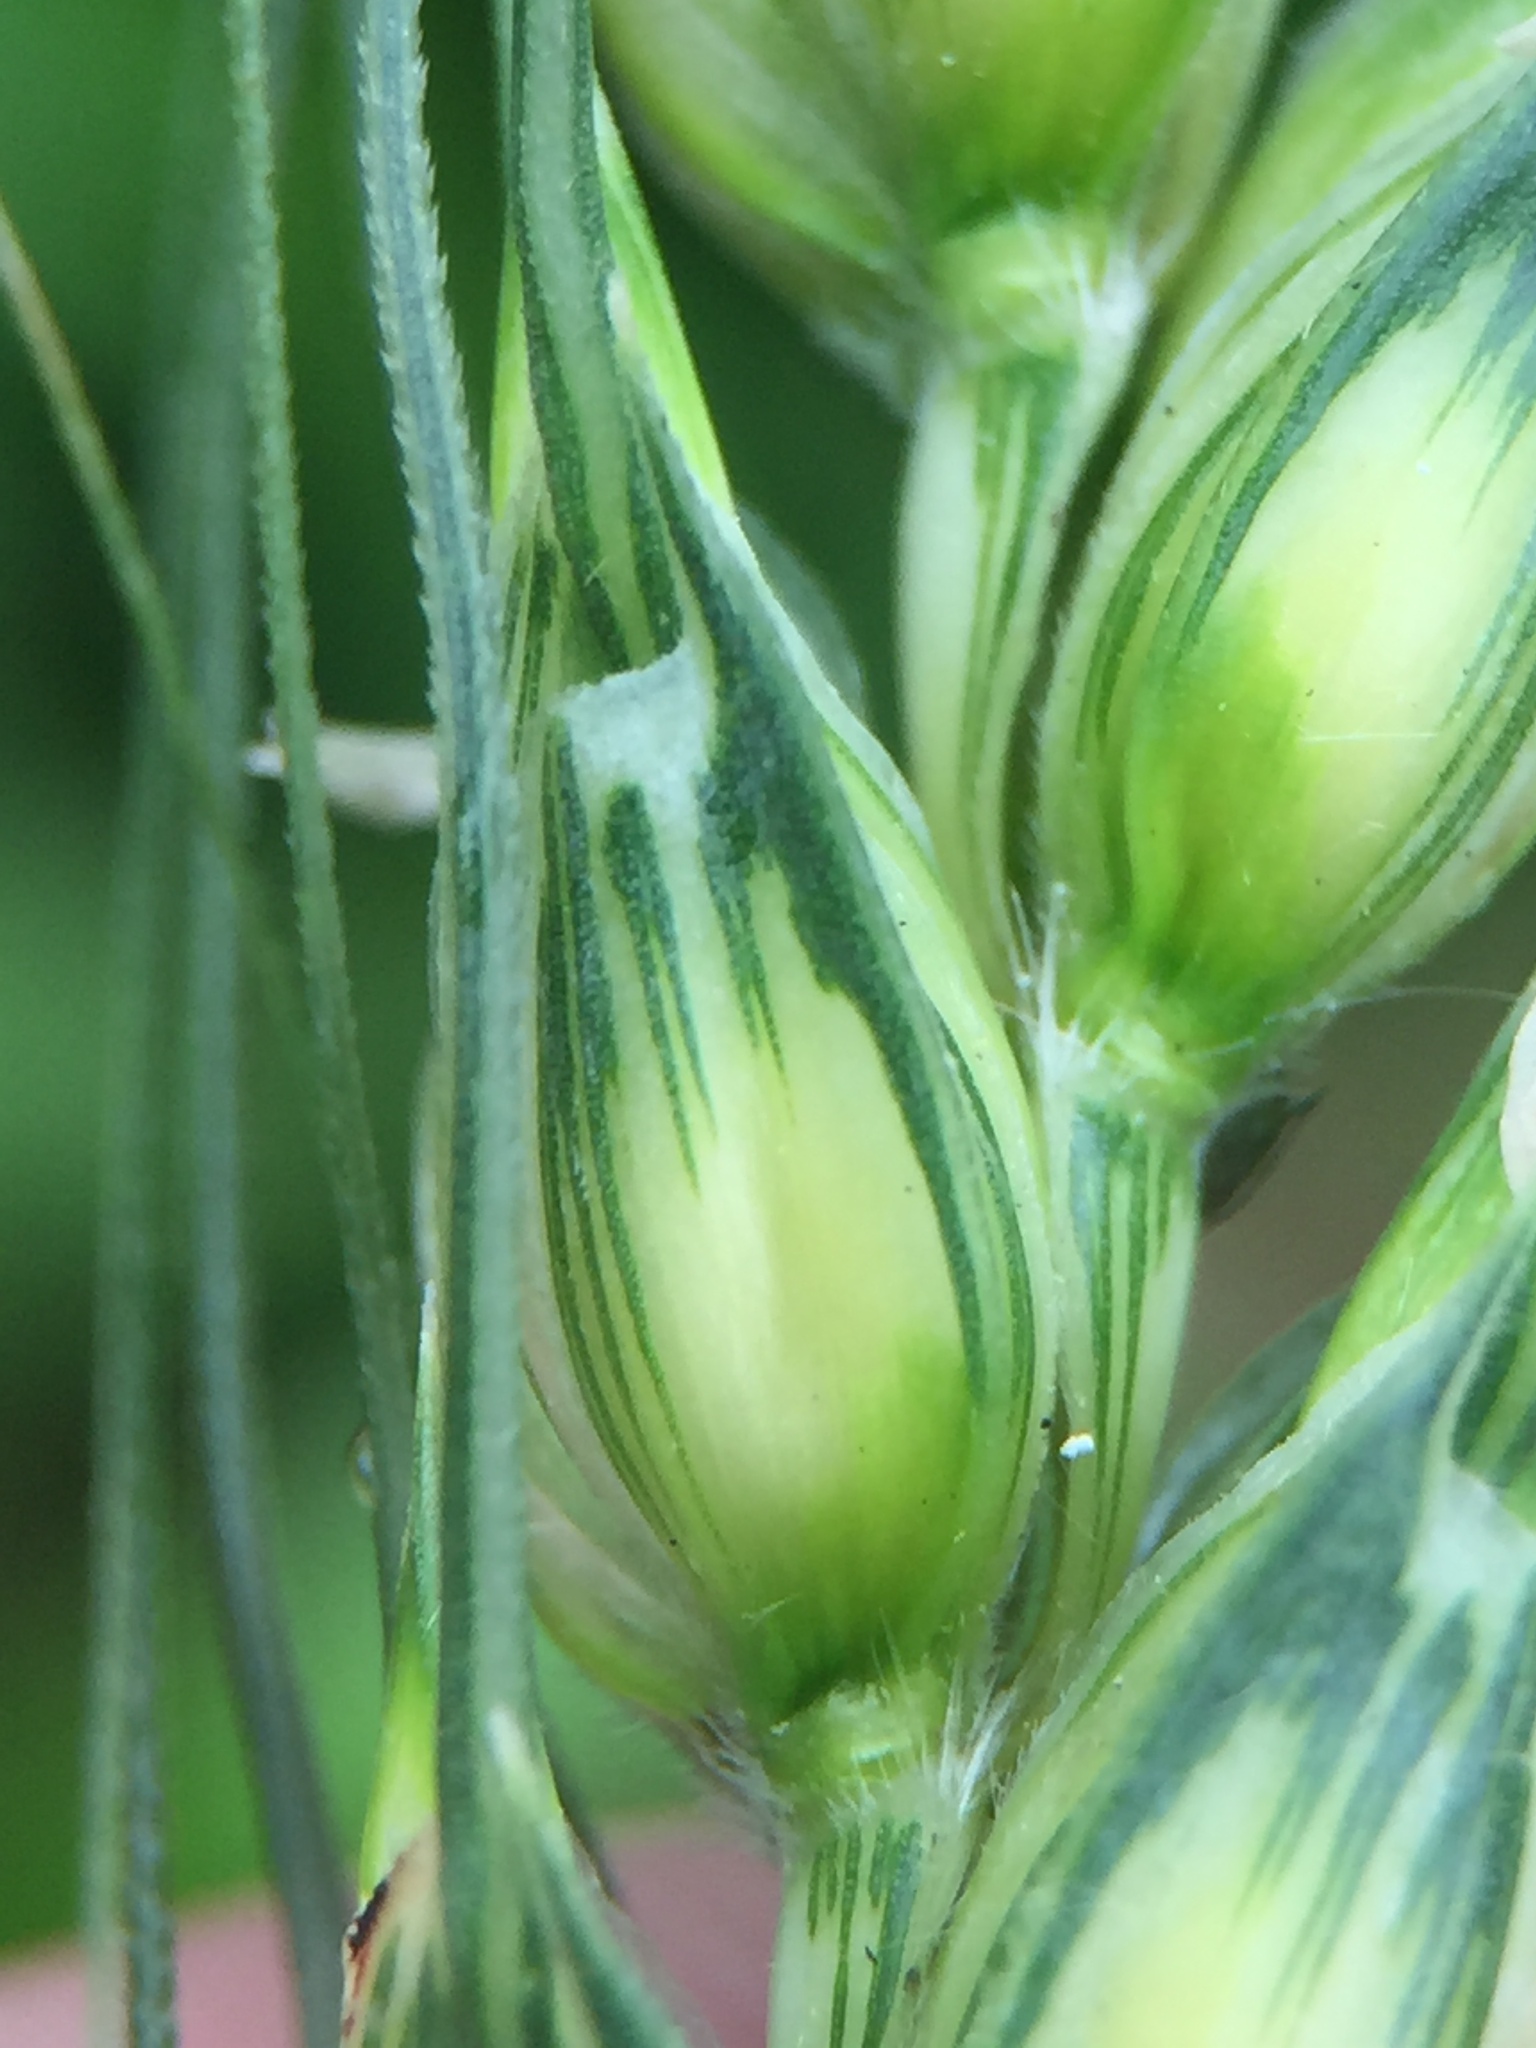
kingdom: Plantae
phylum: Tracheophyta
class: Liliopsida
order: Poales
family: Poaceae
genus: Triticum
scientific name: Triticum aestivum
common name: Common wheat
